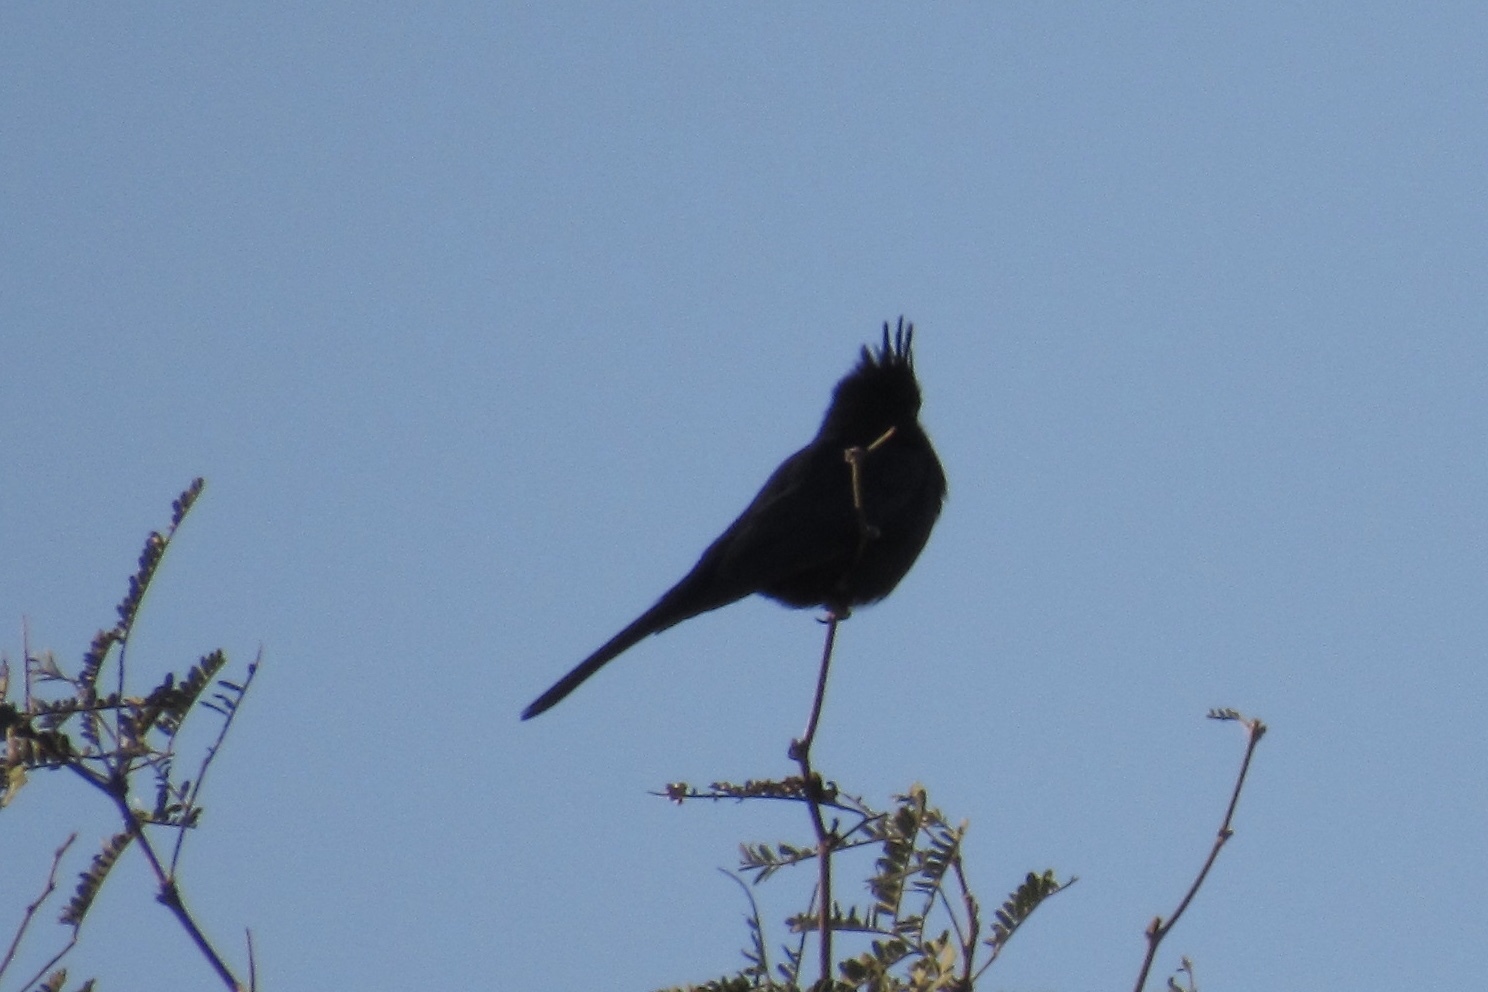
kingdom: Animalia
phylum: Chordata
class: Aves
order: Passeriformes
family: Ptilogonatidae
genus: Phainopepla
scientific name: Phainopepla nitens
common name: Phainopepla
